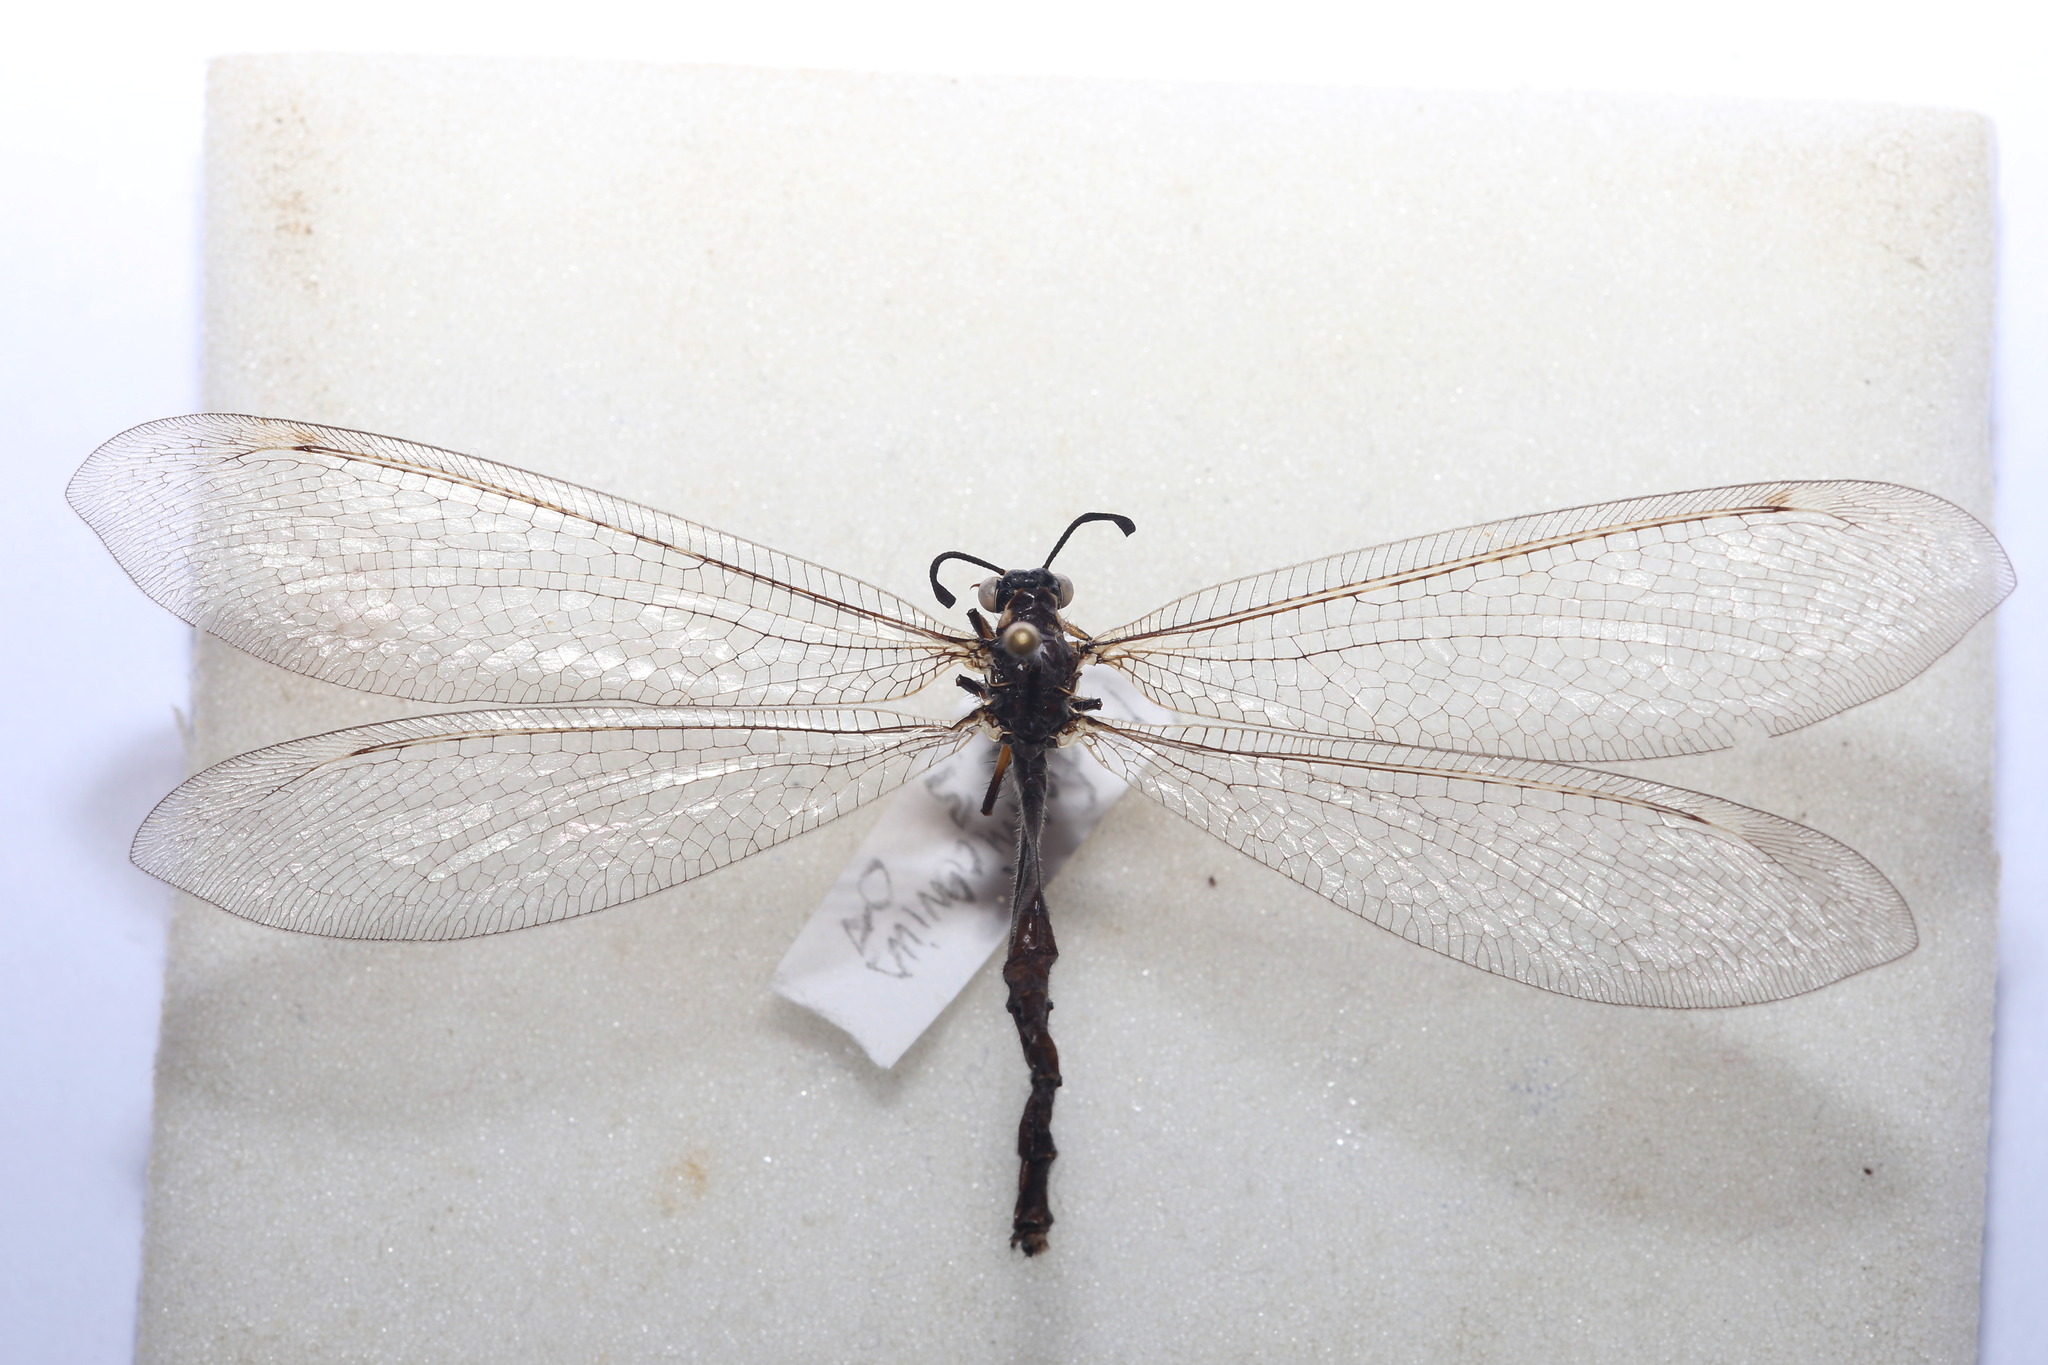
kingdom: Animalia
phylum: Arthropoda
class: Insecta
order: Neuroptera
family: Myrmeleontidae
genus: Myrmeleon
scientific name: Myrmeleon formicarius
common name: Ant-lion
